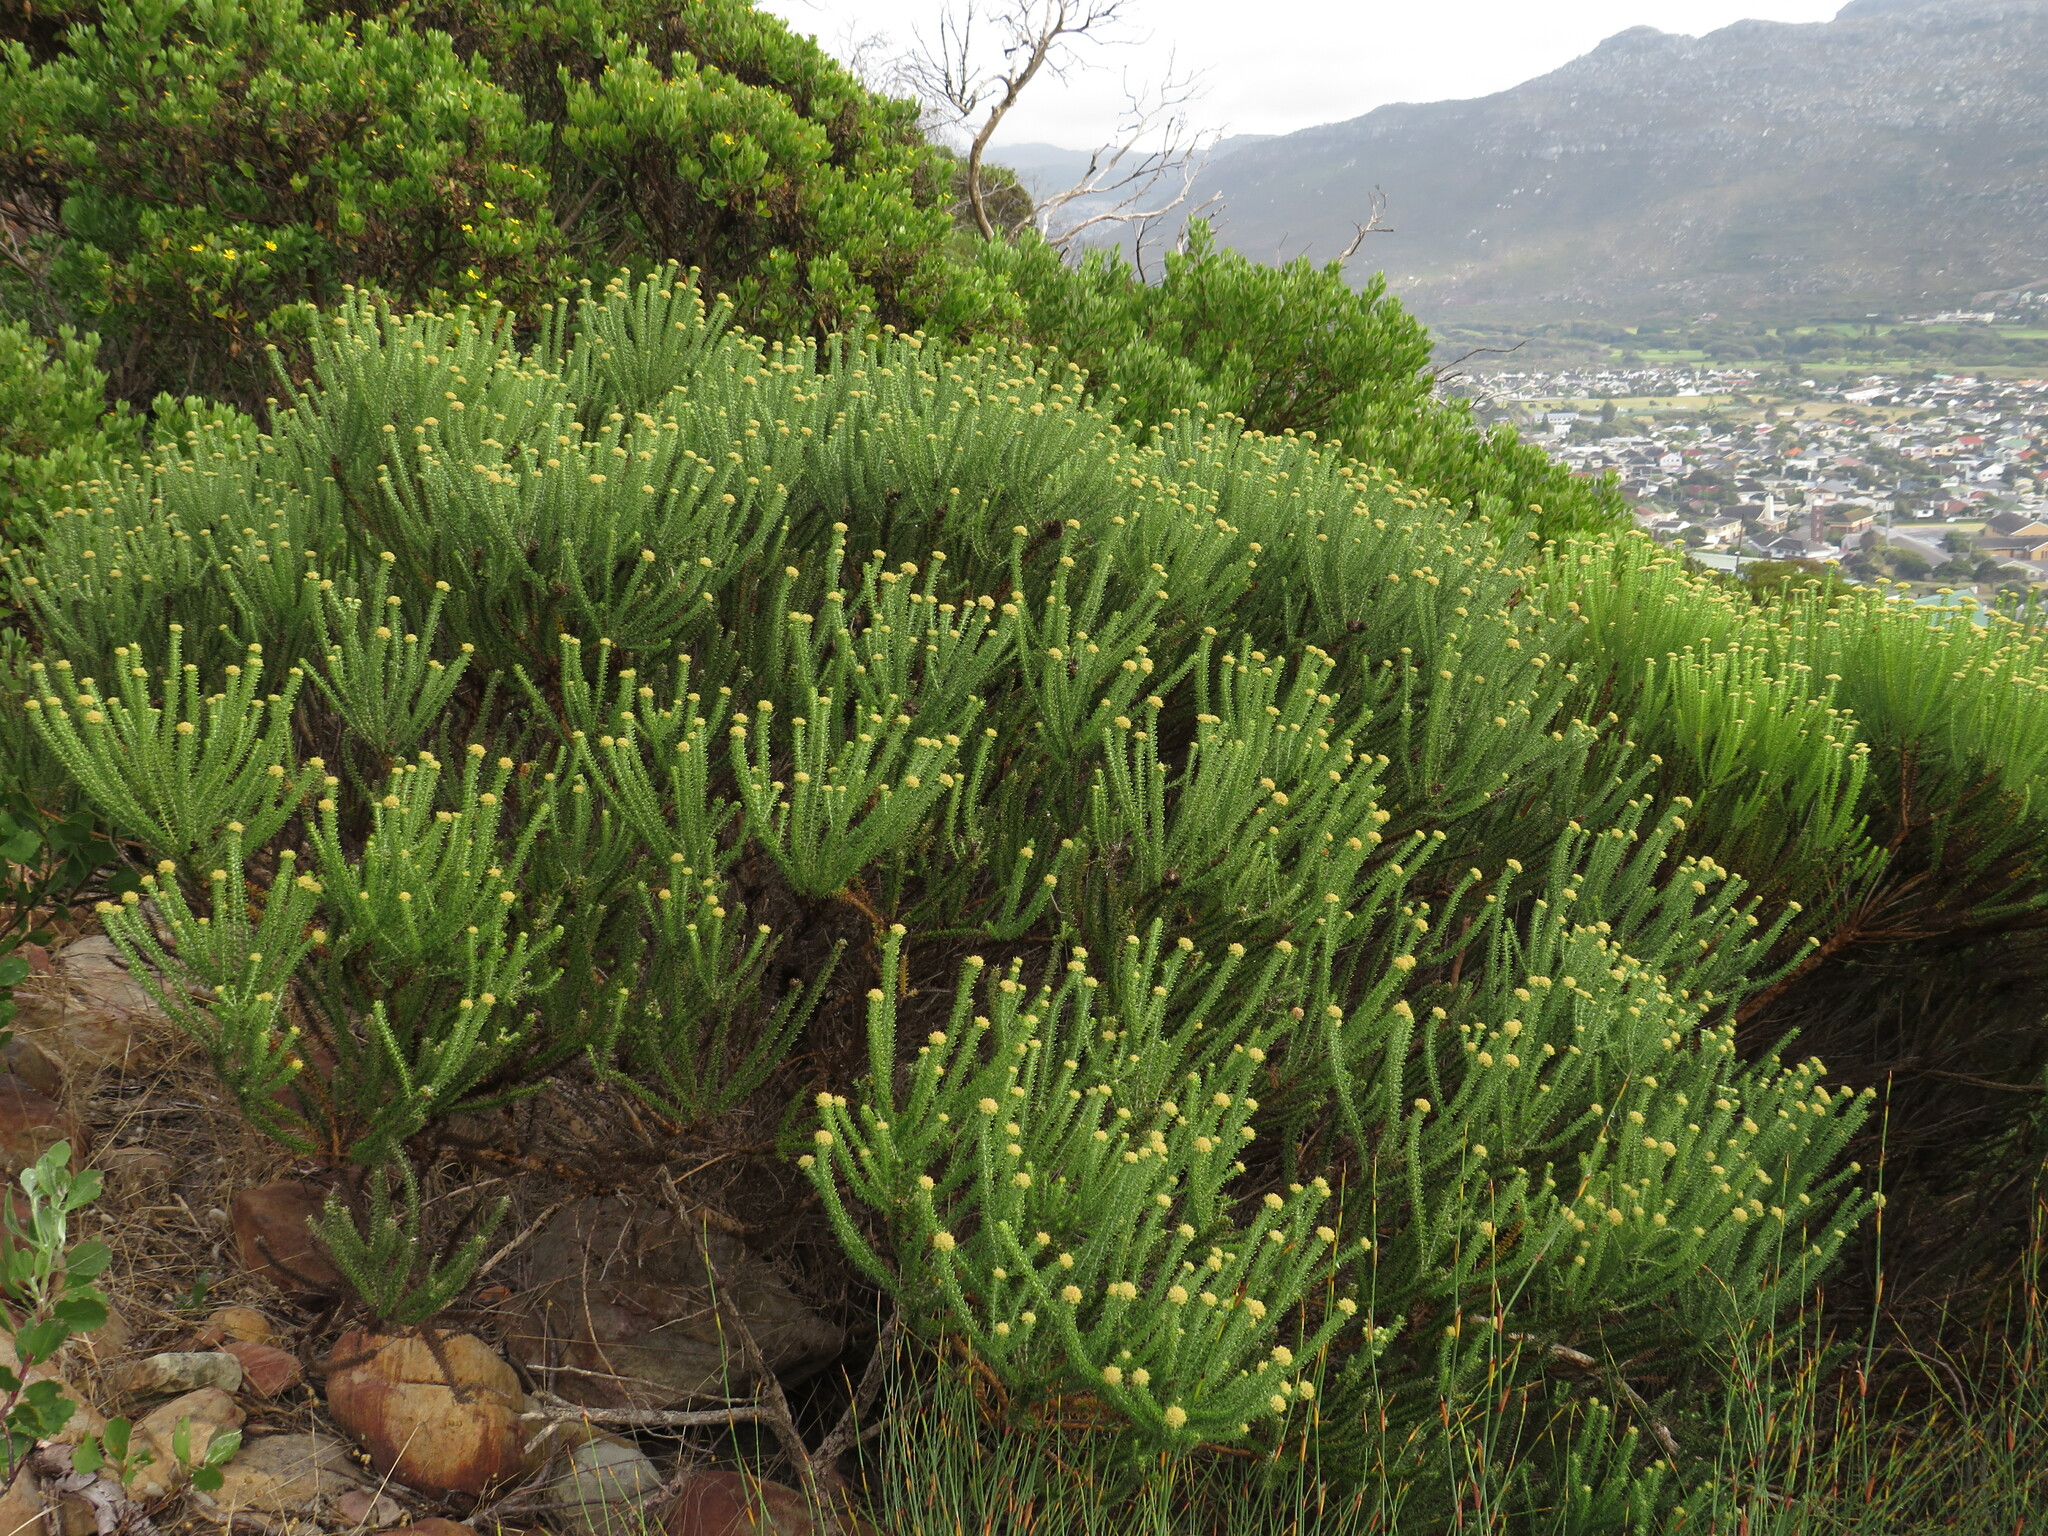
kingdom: Plantae
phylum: Tracheophyta
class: Magnoliopsida
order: Asterales
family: Asteraceae
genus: Metalasia
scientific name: Metalasia muricata
